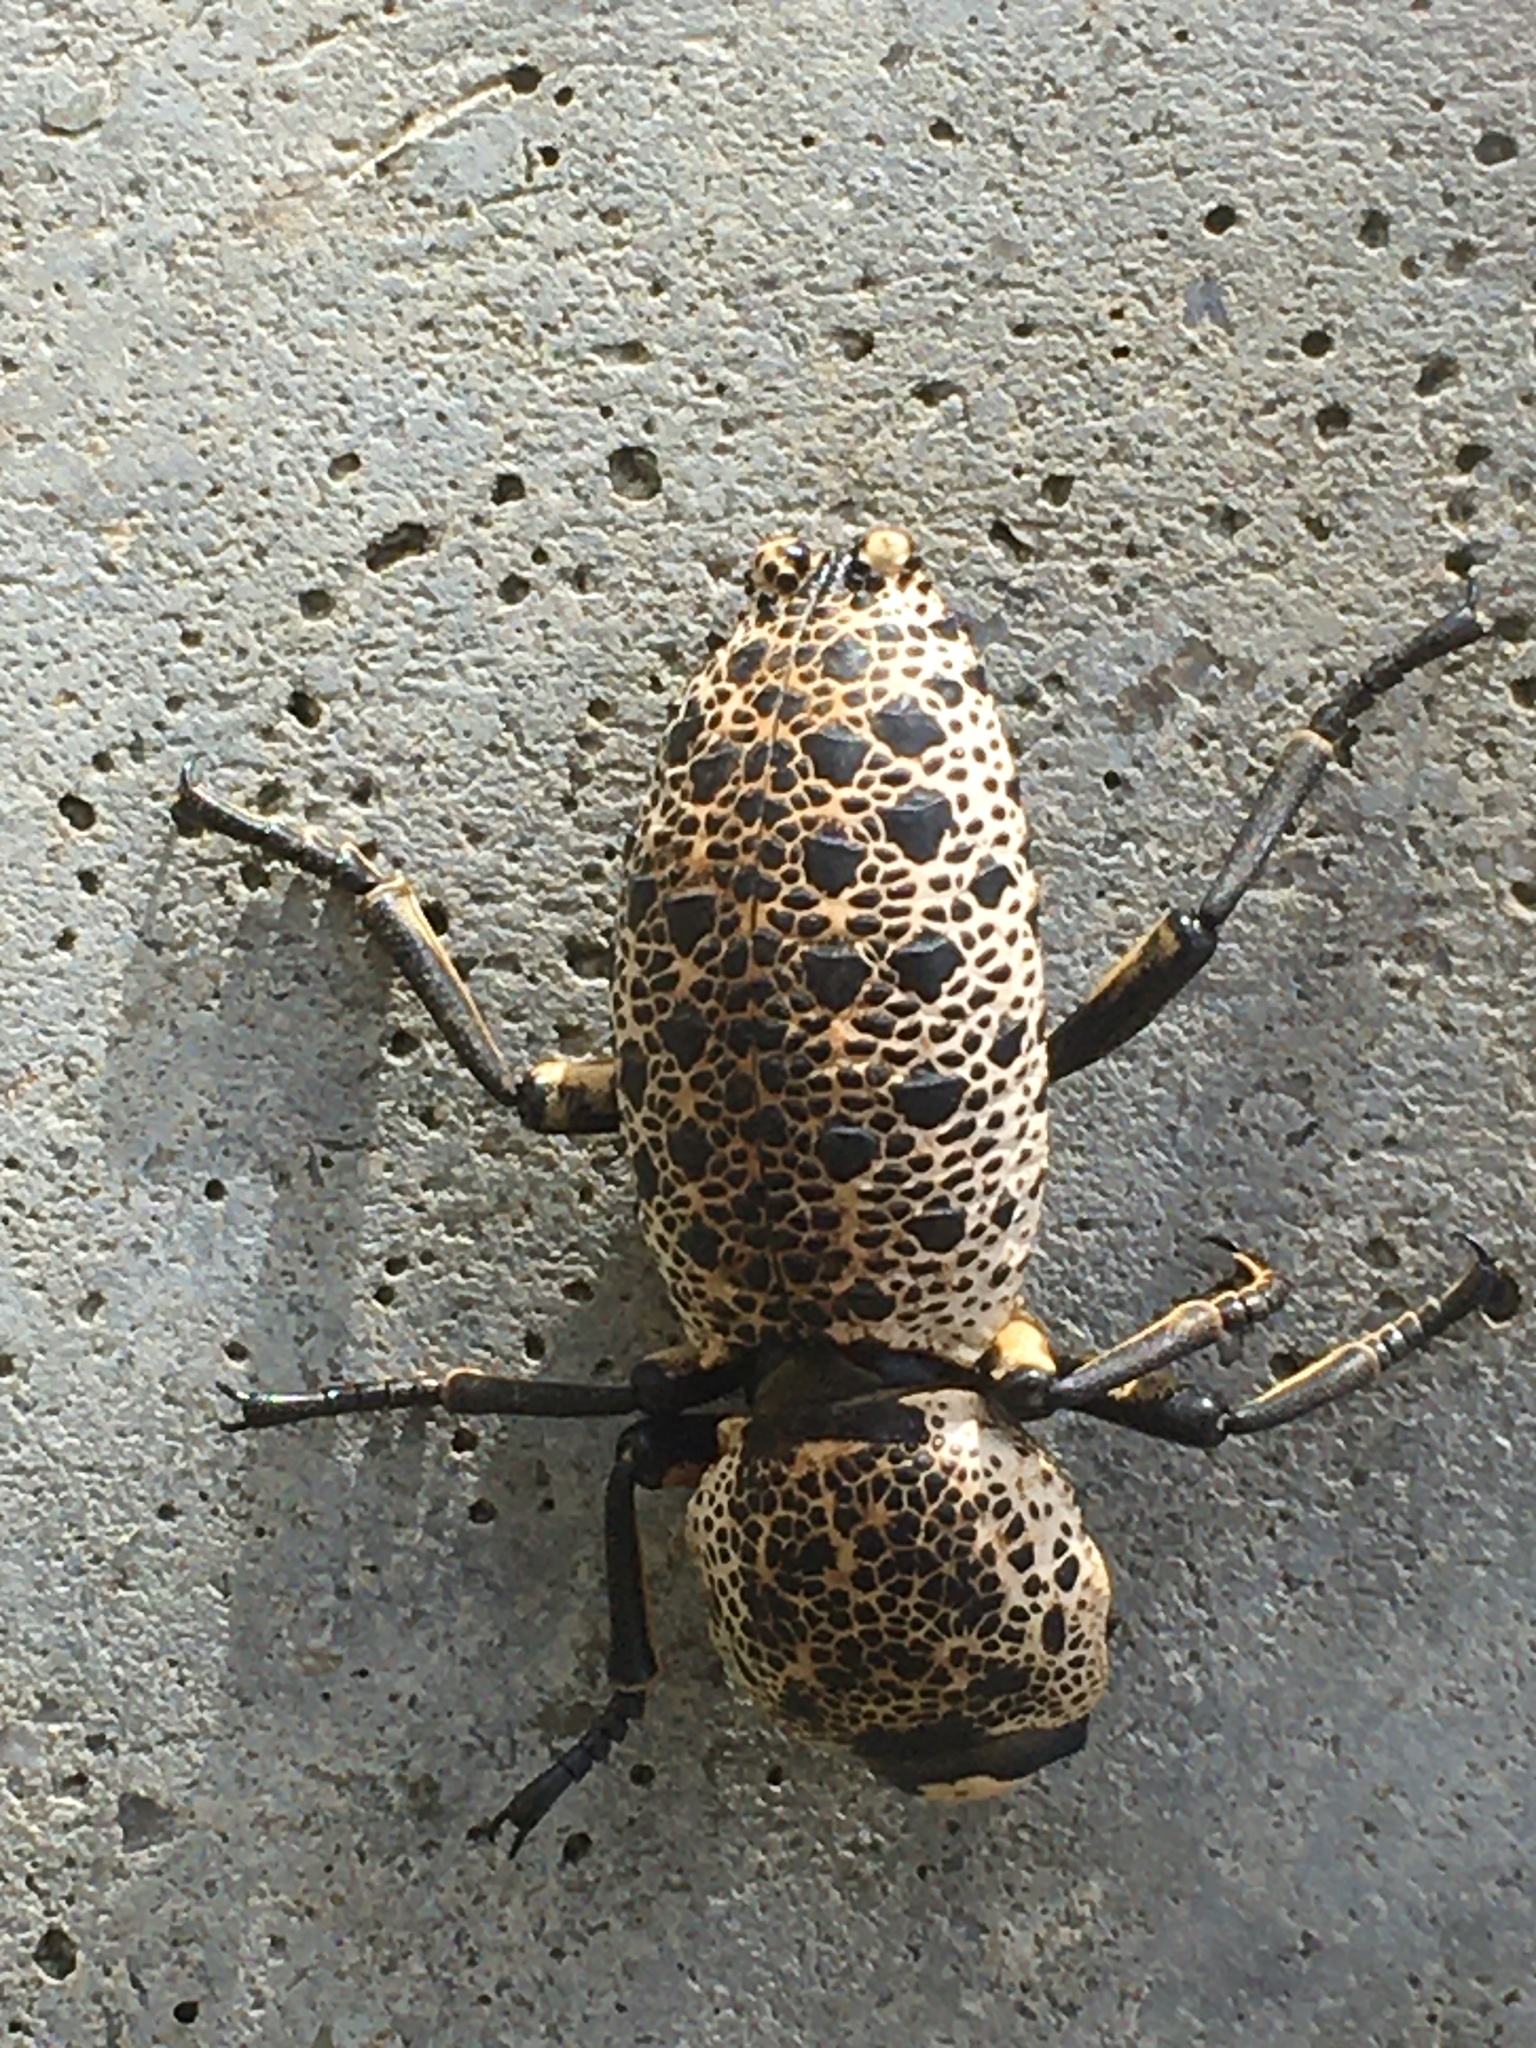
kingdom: Animalia
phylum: Arthropoda
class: Insecta
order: Coleoptera
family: Zopheridae
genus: Zopherus
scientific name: Zopherus
